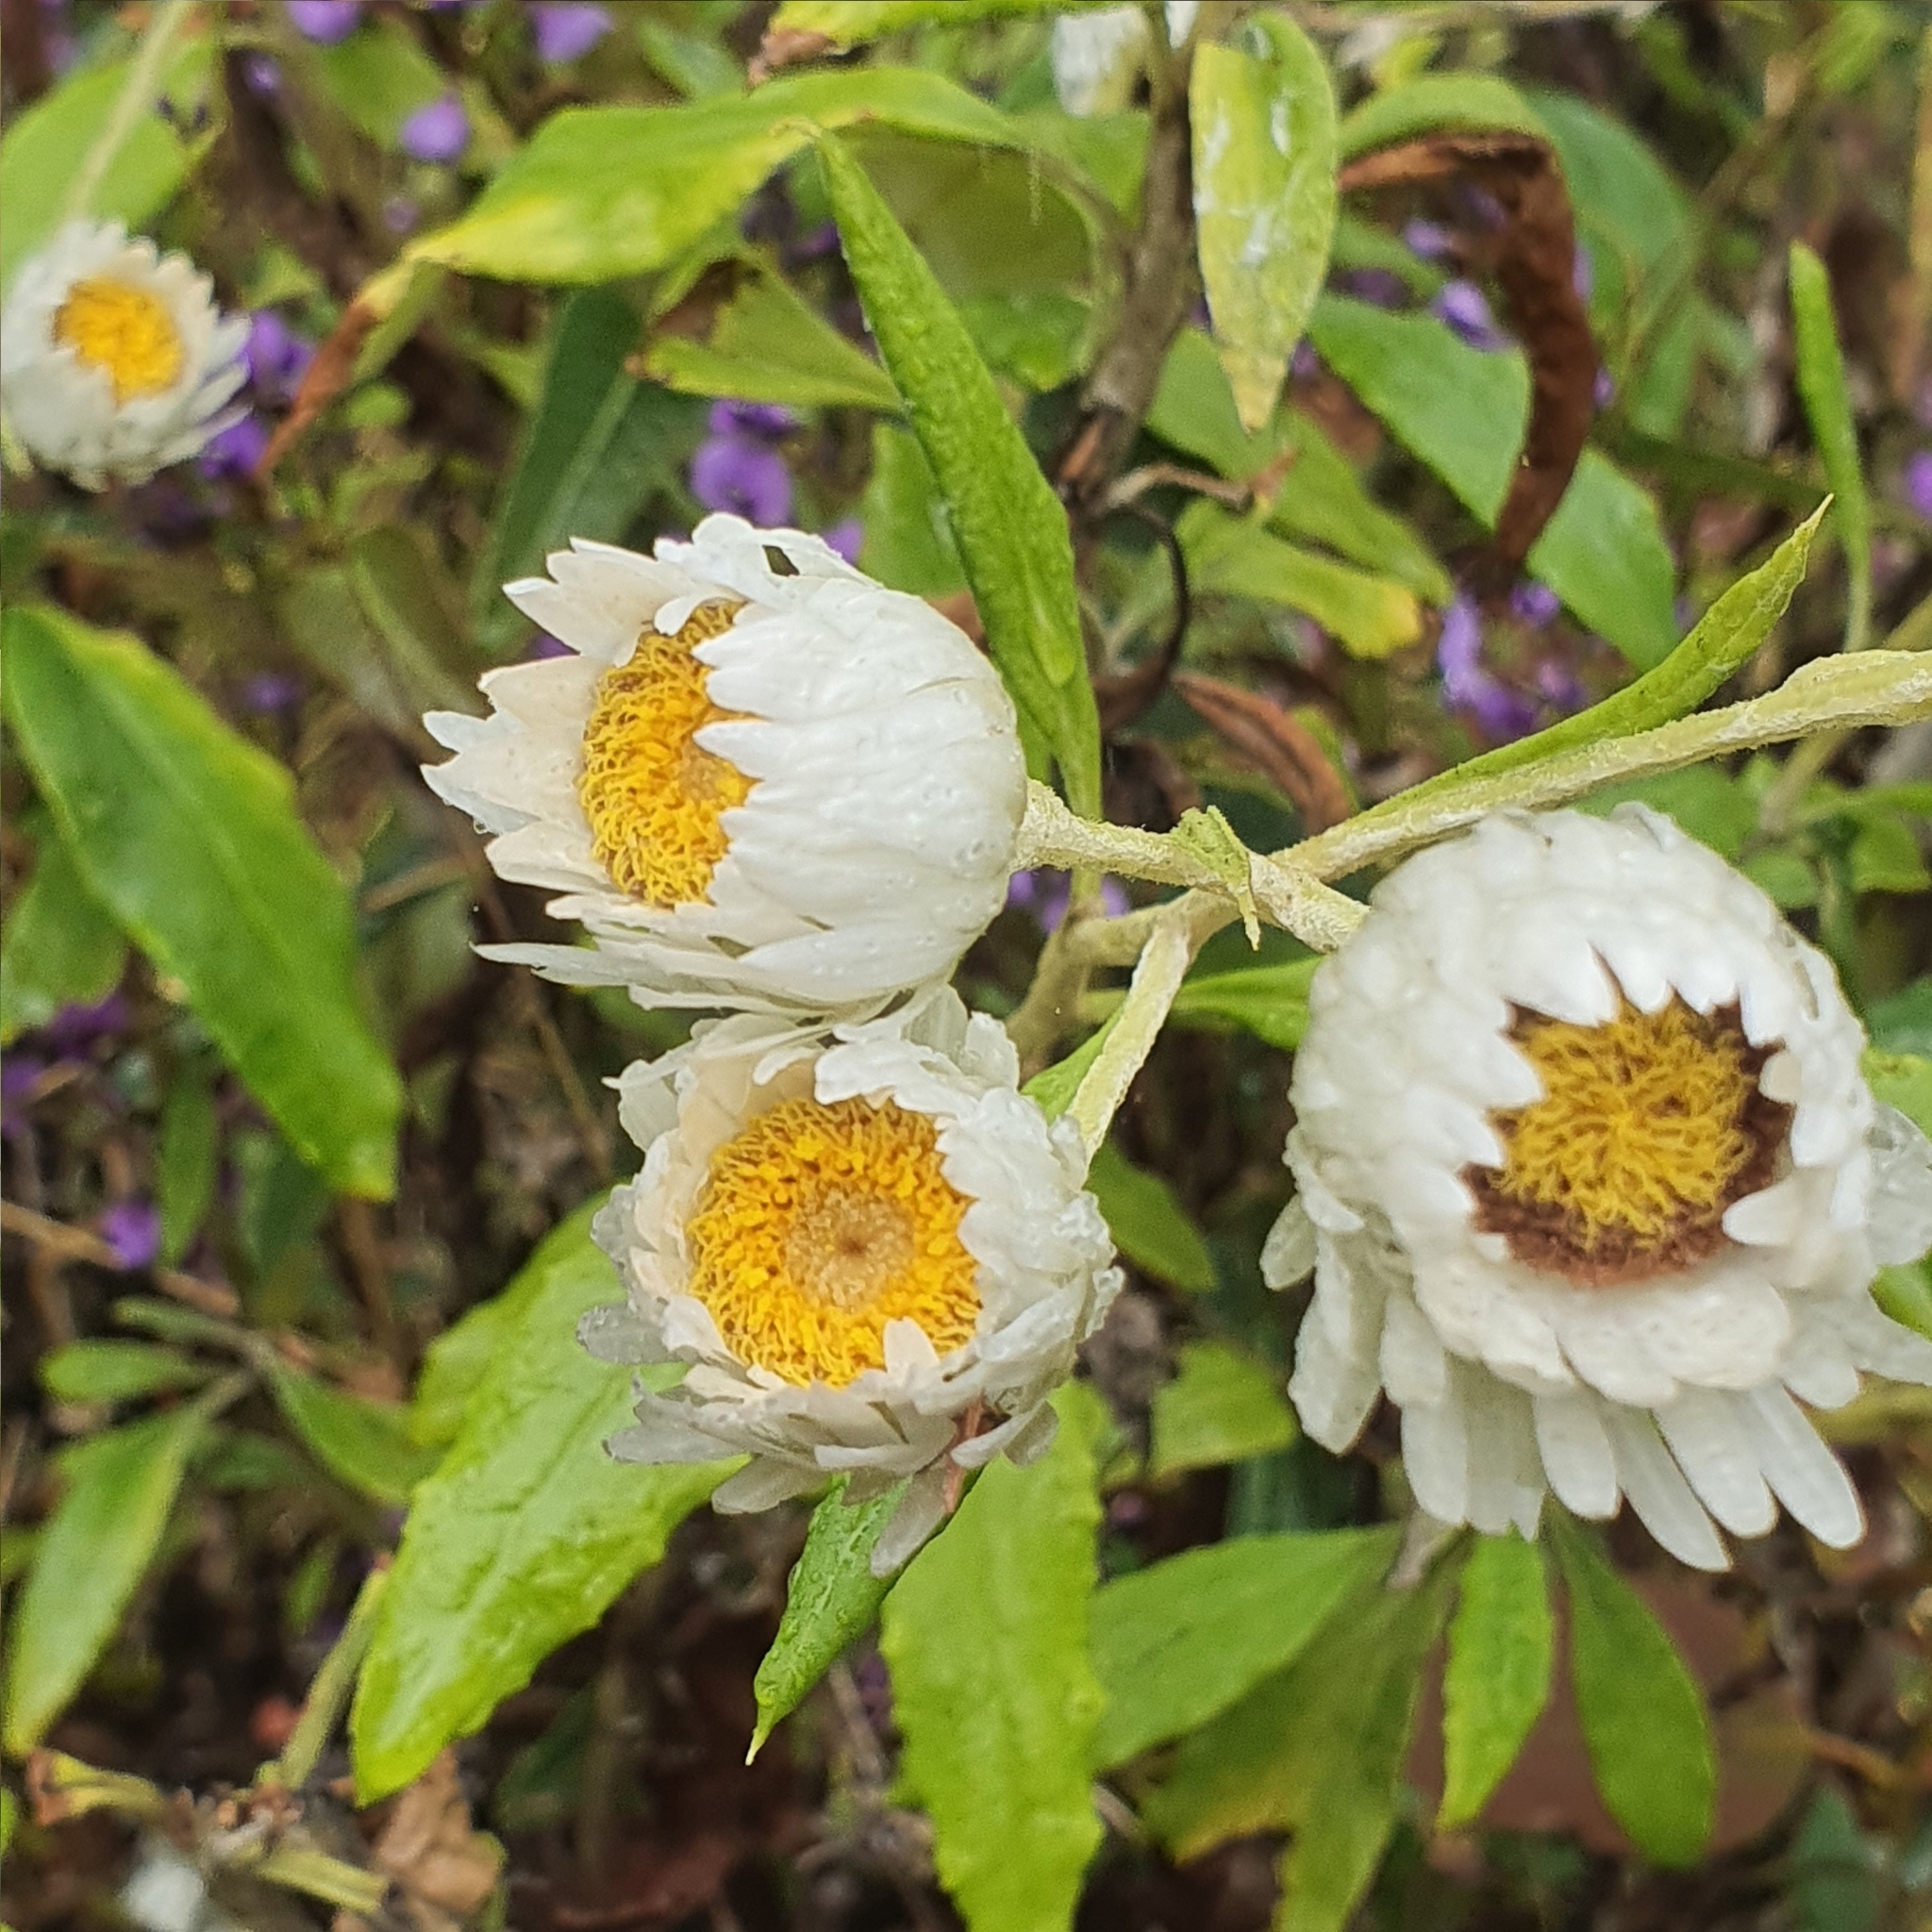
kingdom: Plantae
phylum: Tracheophyta
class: Magnoliopsida
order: Asterales
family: Asteraceae
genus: Leucozoma
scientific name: Leucozoma elatum
